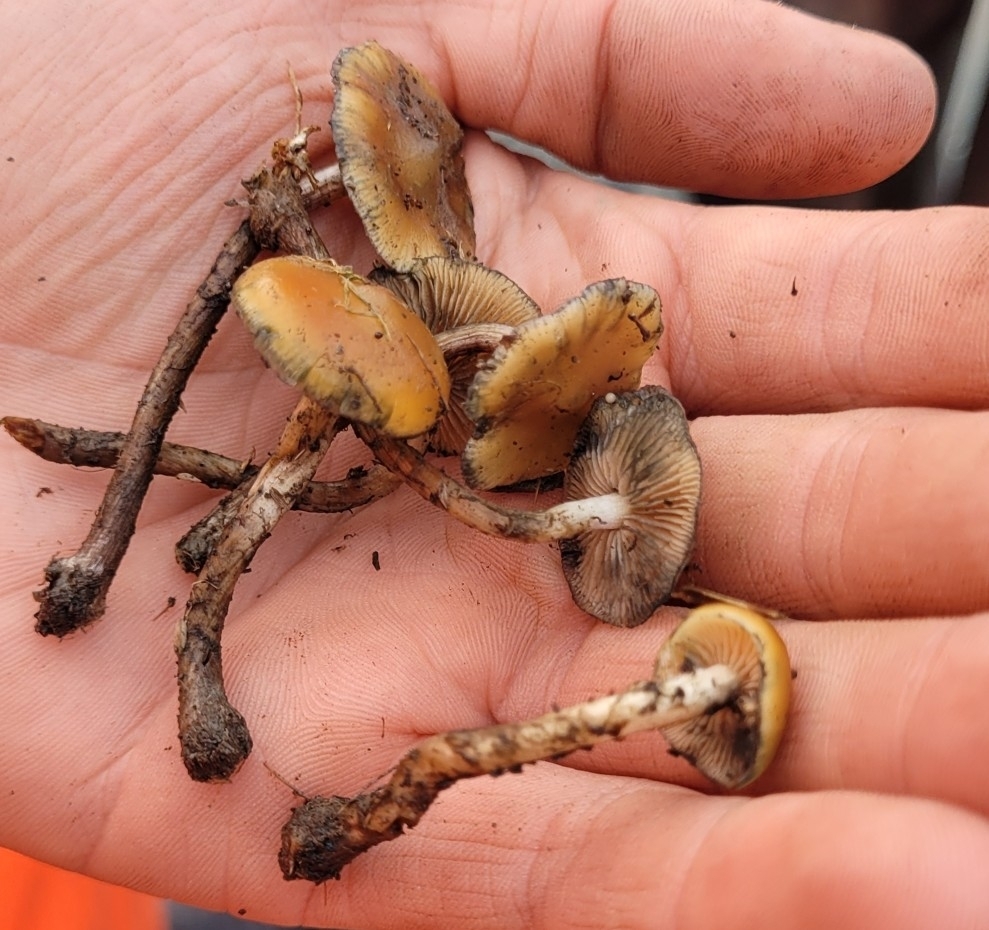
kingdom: Fungi
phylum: Basidiomycota
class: Agaricomycetes
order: Agaricales
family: Hymenogastraceae
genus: Psilocybe
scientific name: Psilocybe subaeruginosa
